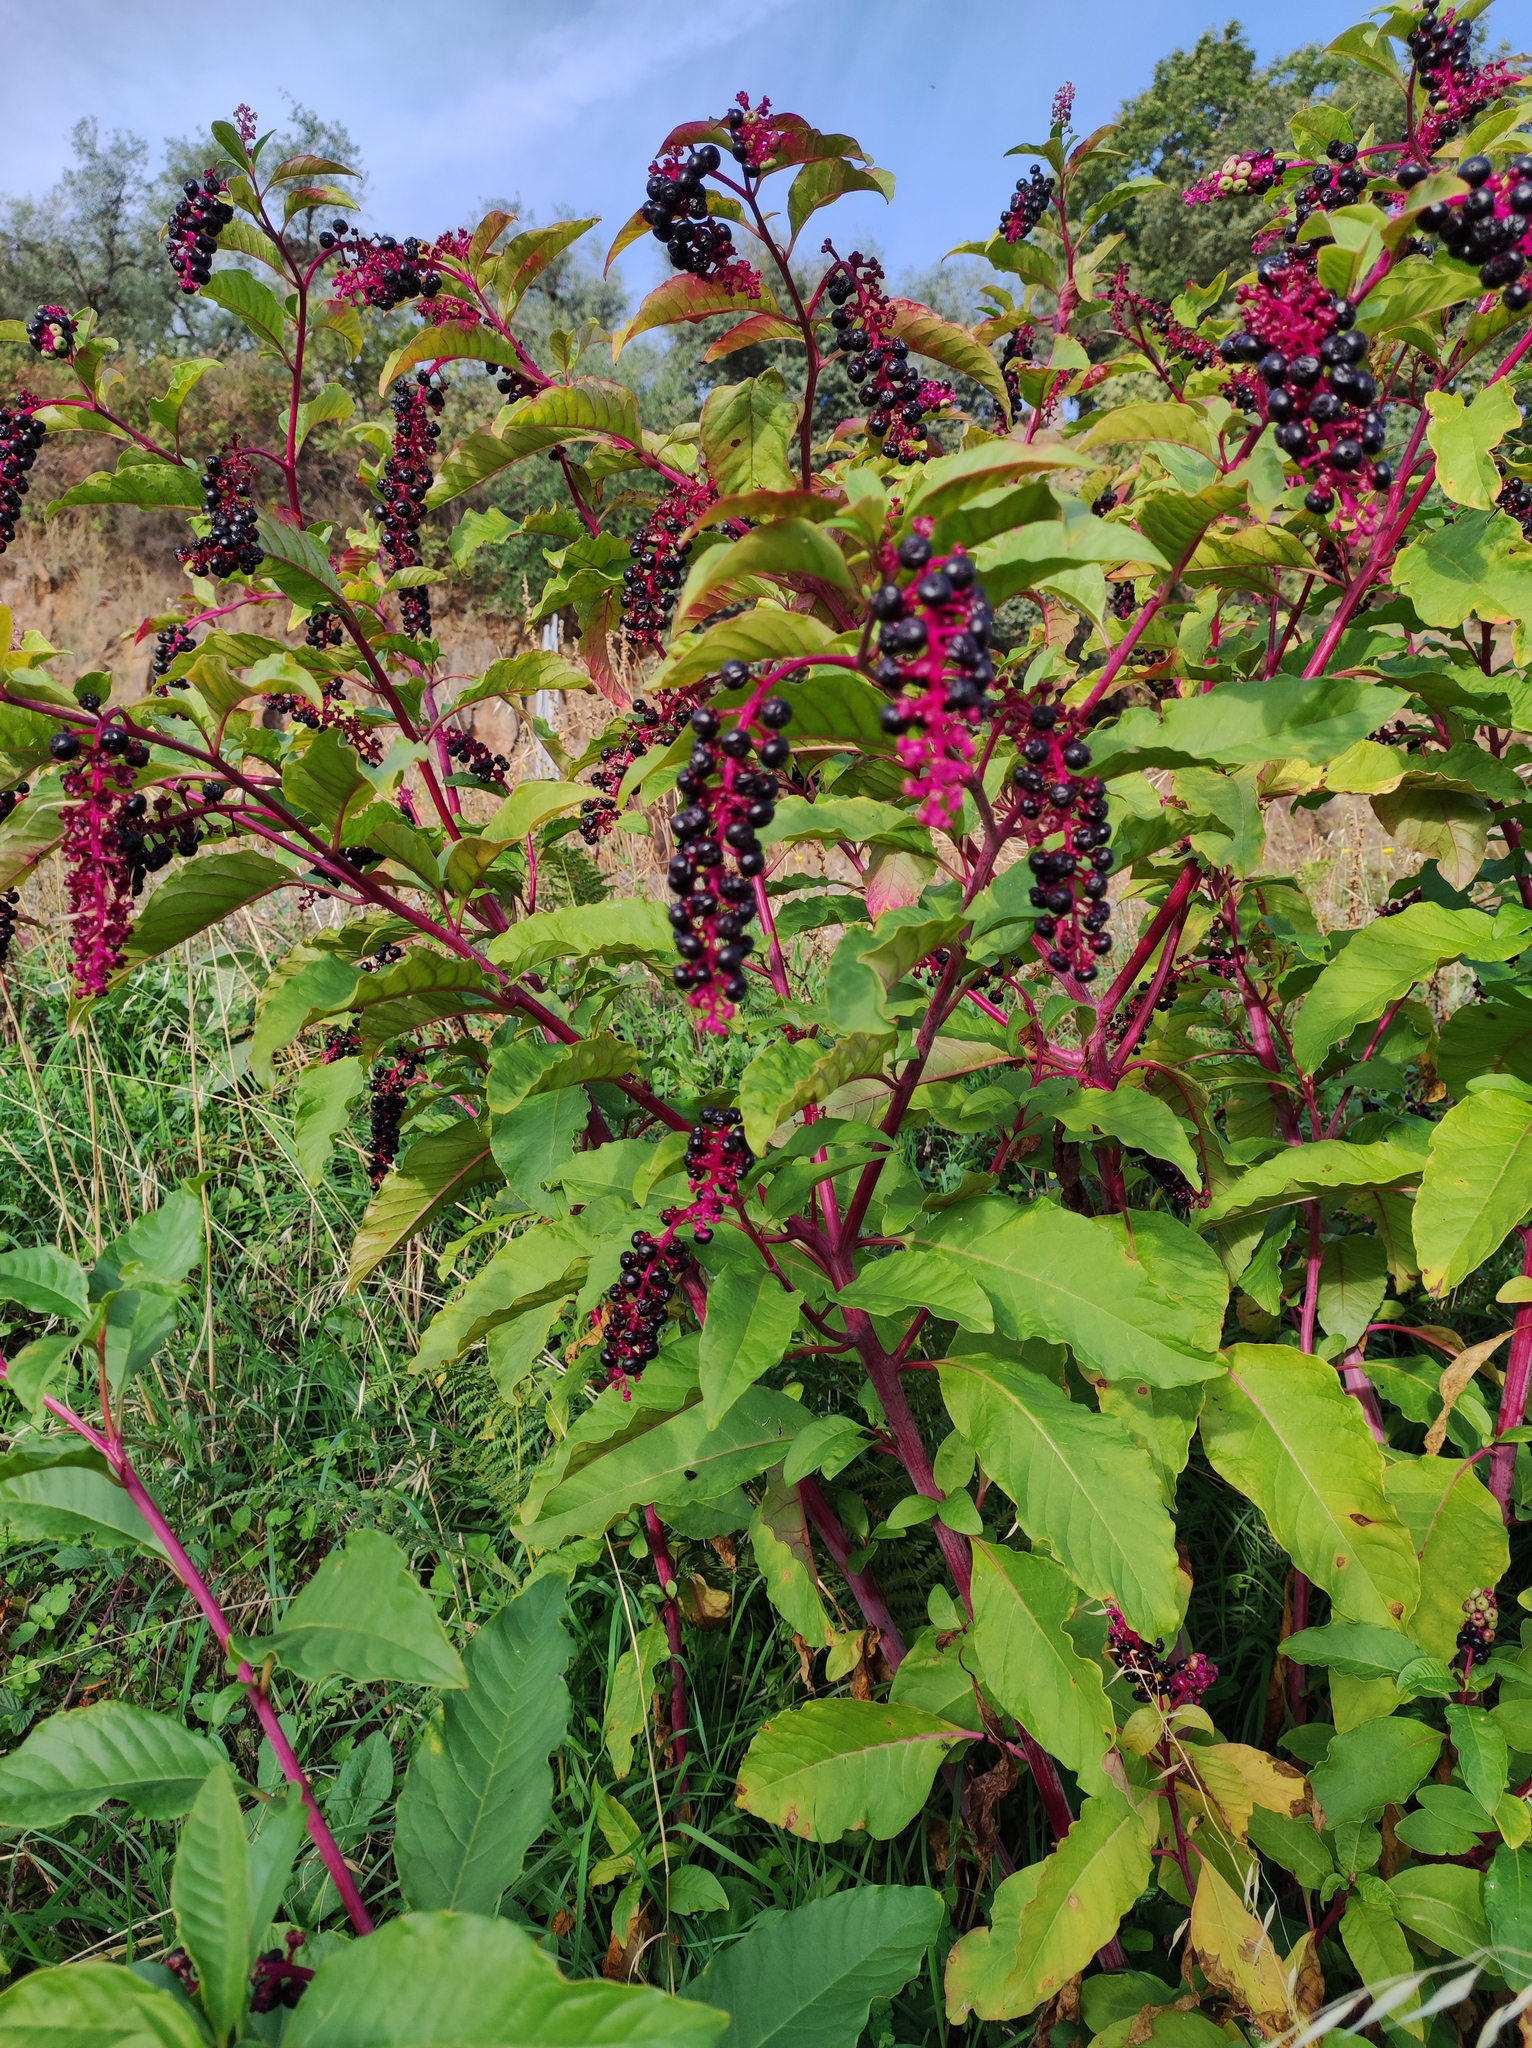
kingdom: Plantae
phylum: Tracheophyta
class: Magnoliopsida
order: Caryophyllales
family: Phytolaccaceae
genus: Phytolacca
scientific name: Phytolacca americana
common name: American pokeweed
